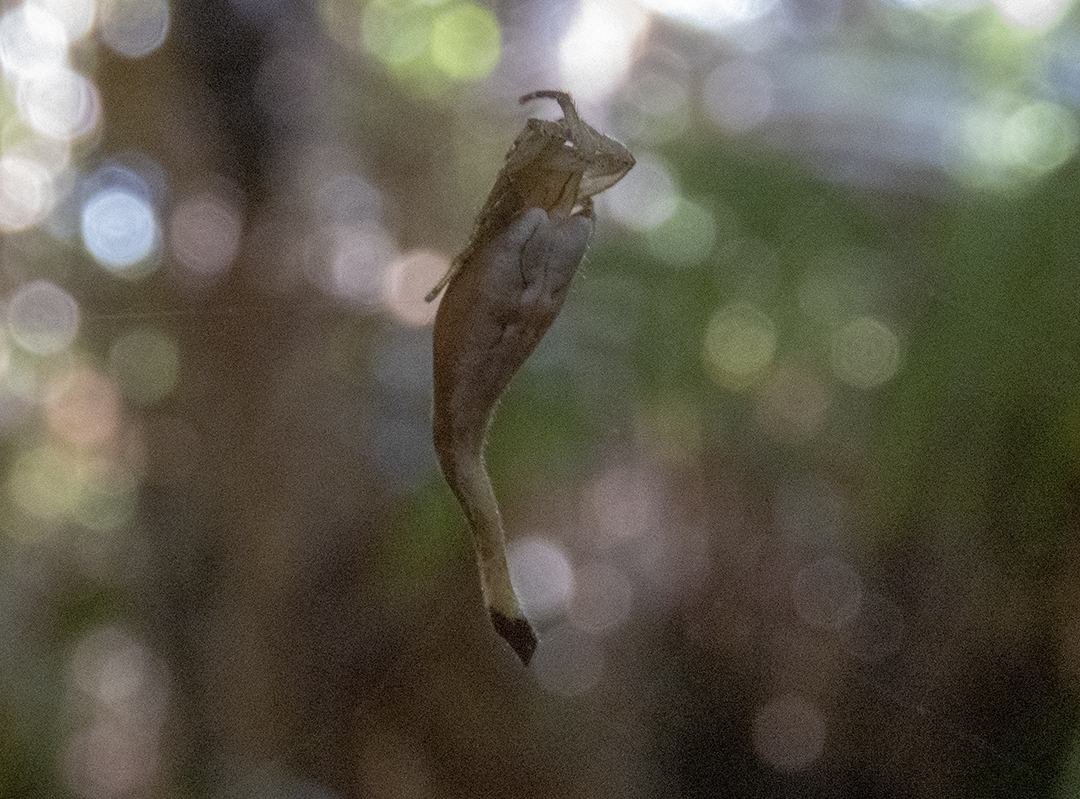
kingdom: Animalia
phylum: Arthropoda
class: Arachnida
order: Araneae
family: Araneidae
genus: Arachnura
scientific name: Arachnura feredayi
